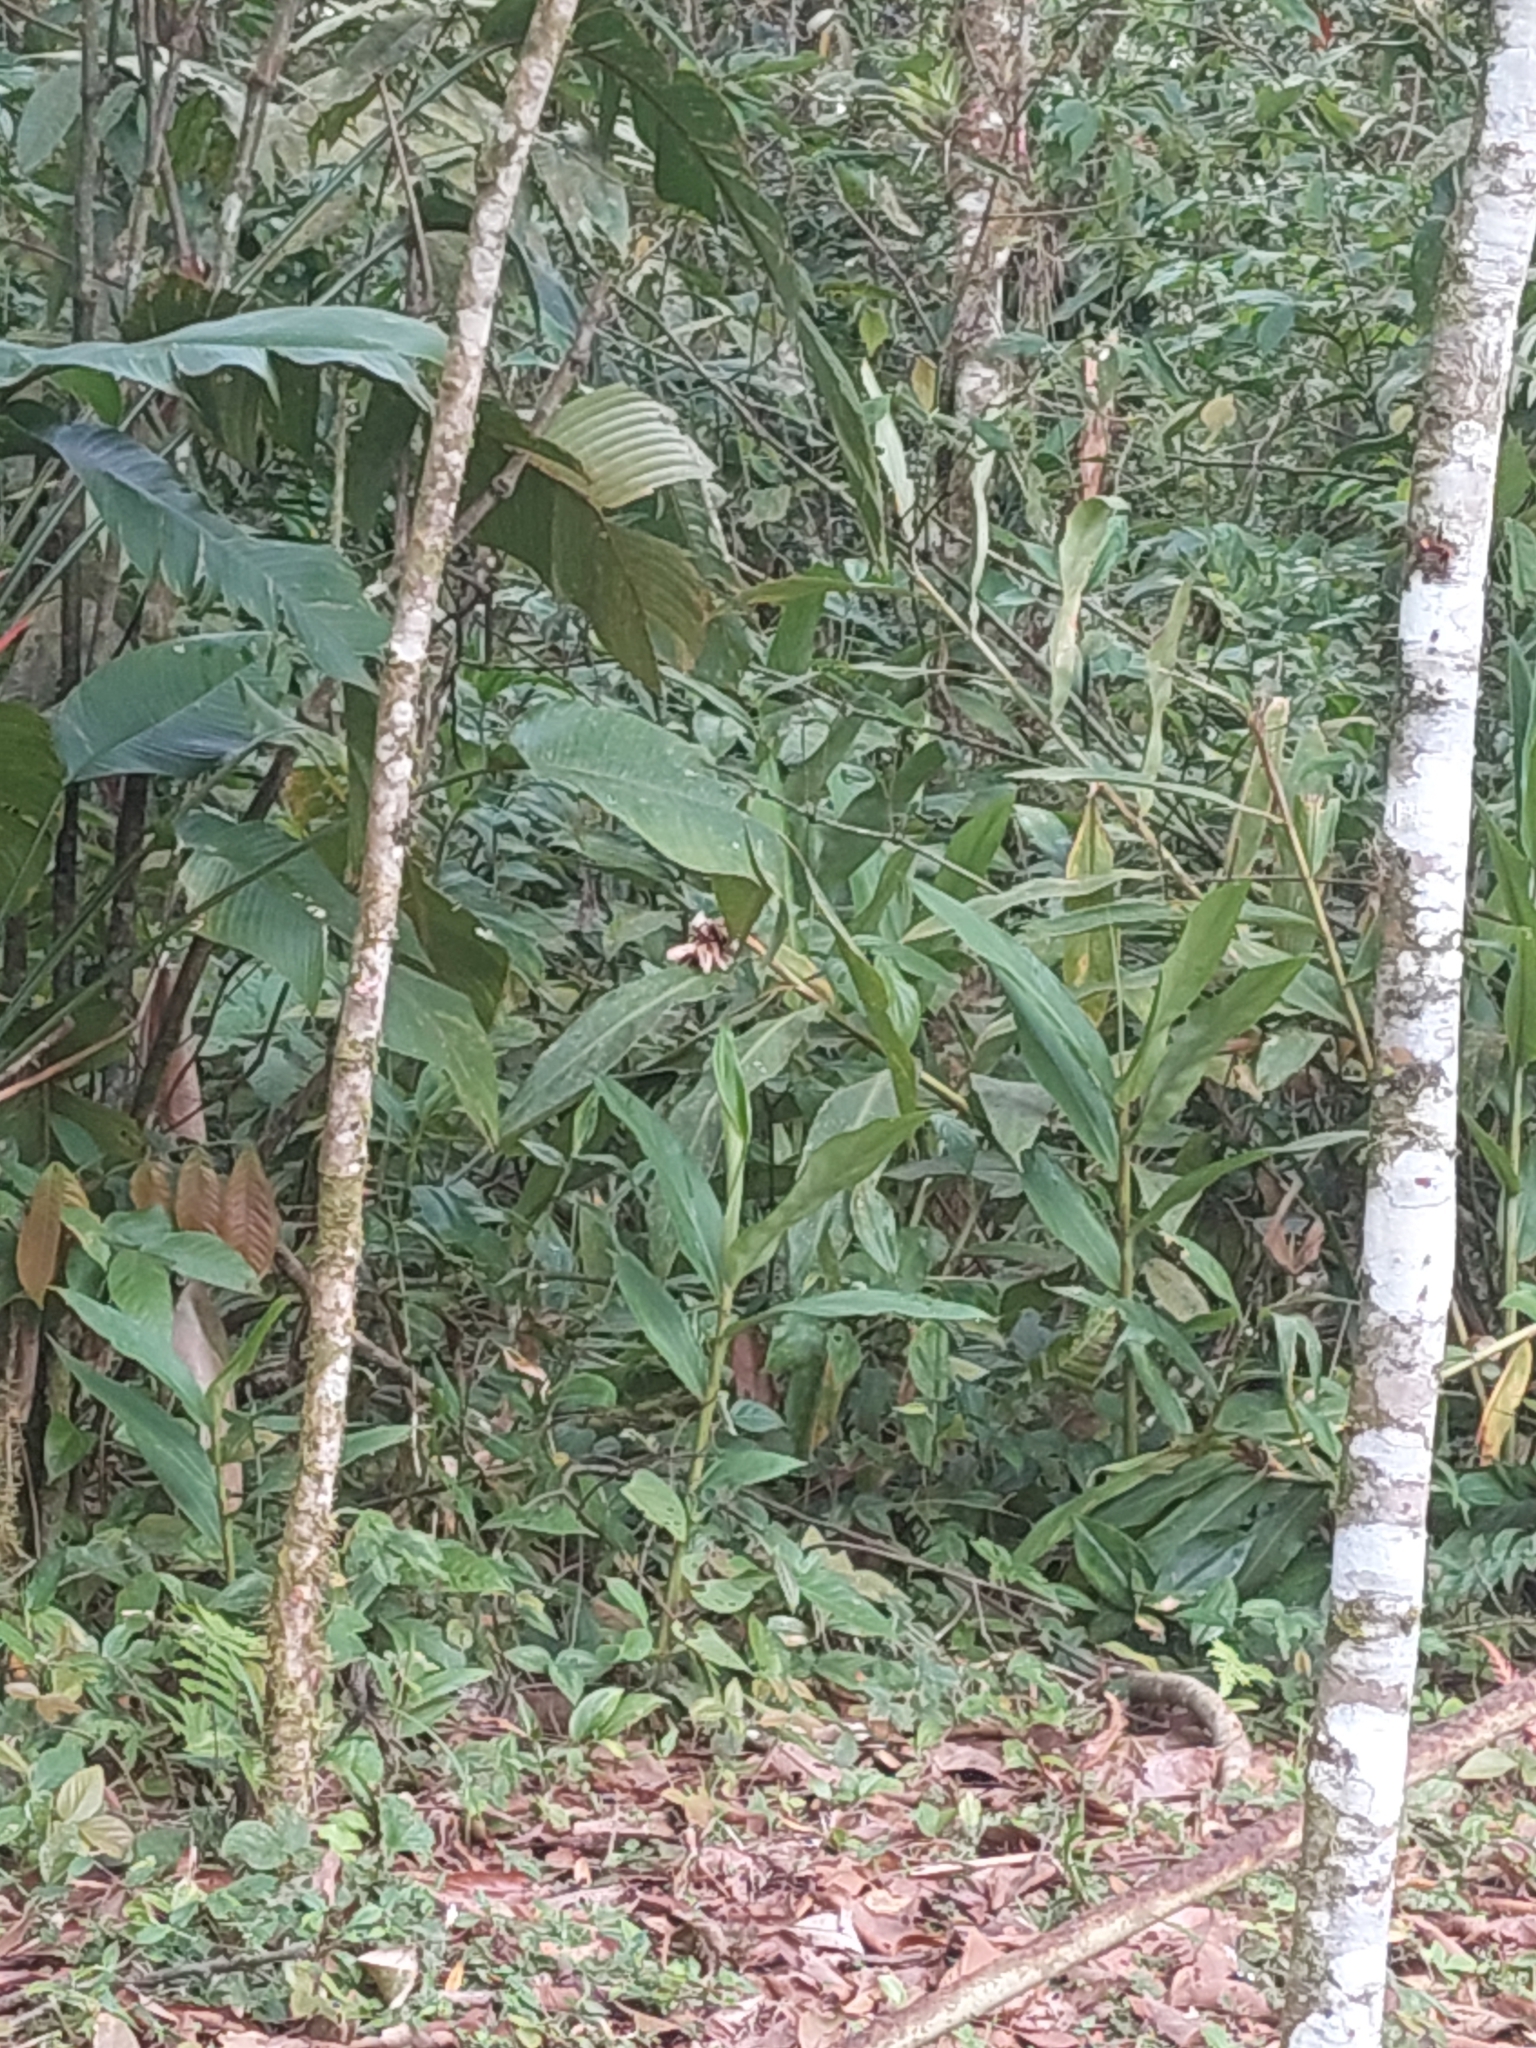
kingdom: Plantae
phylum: Tracheophyta
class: Liliopsida
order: Zingiberales
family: Zingiberaceae
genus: Hedychium
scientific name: Hedychium coronarium
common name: White garland-lily
